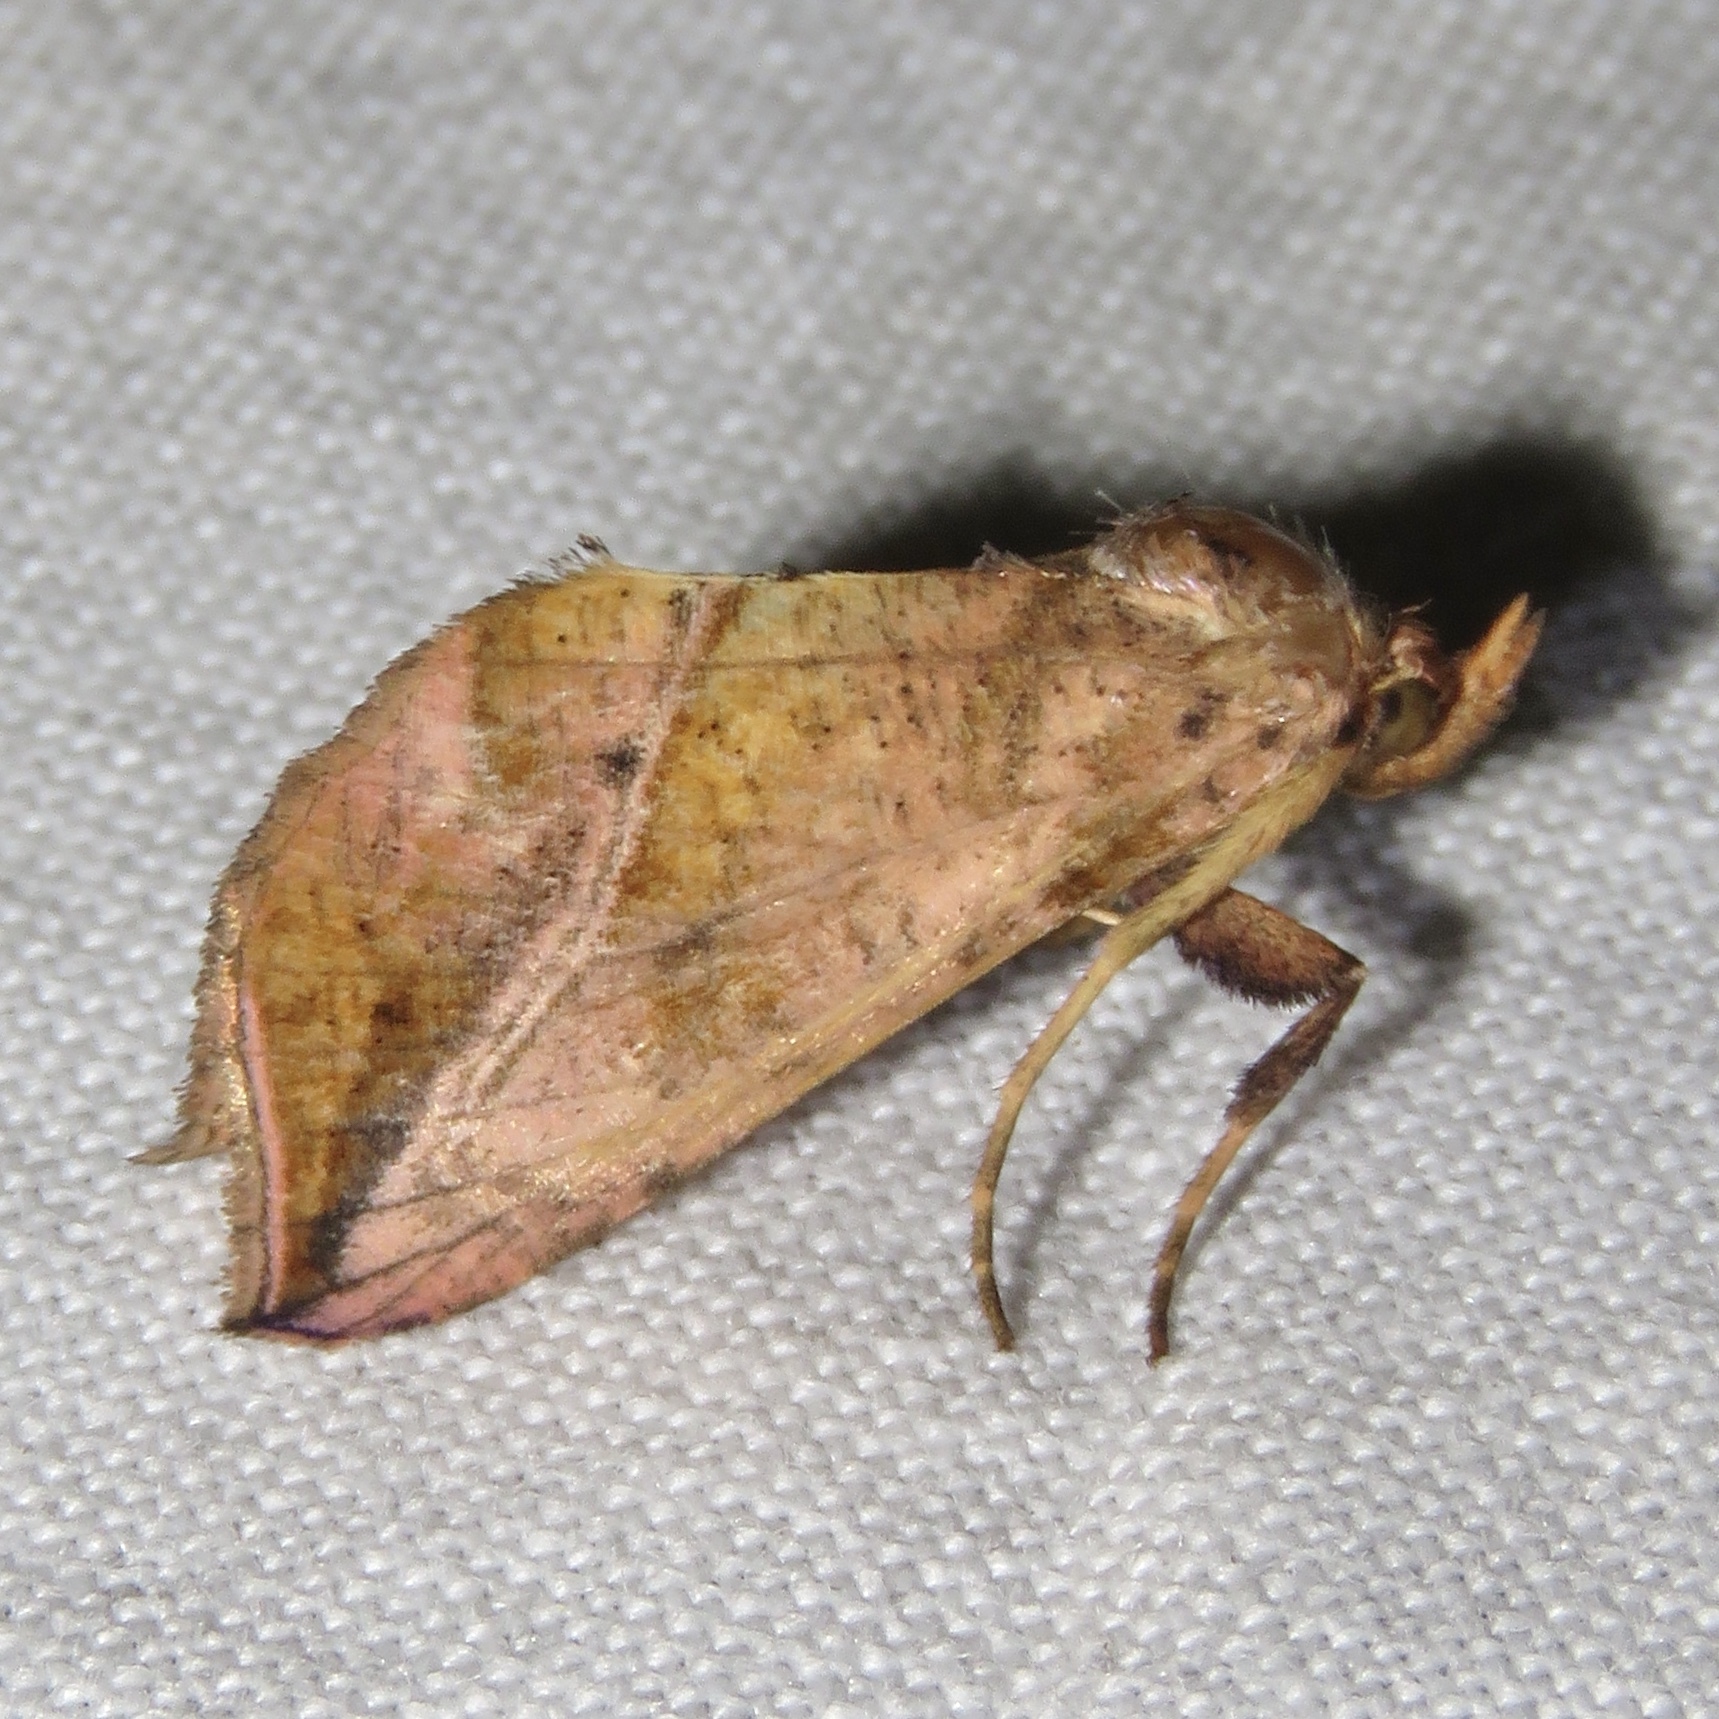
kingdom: Animalia
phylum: Arthropoda
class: Insecta
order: Lepidoptera
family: Noctuidae
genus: Pseudeva
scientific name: Pseudeva purpurigera
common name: Straight-lined looper moth
